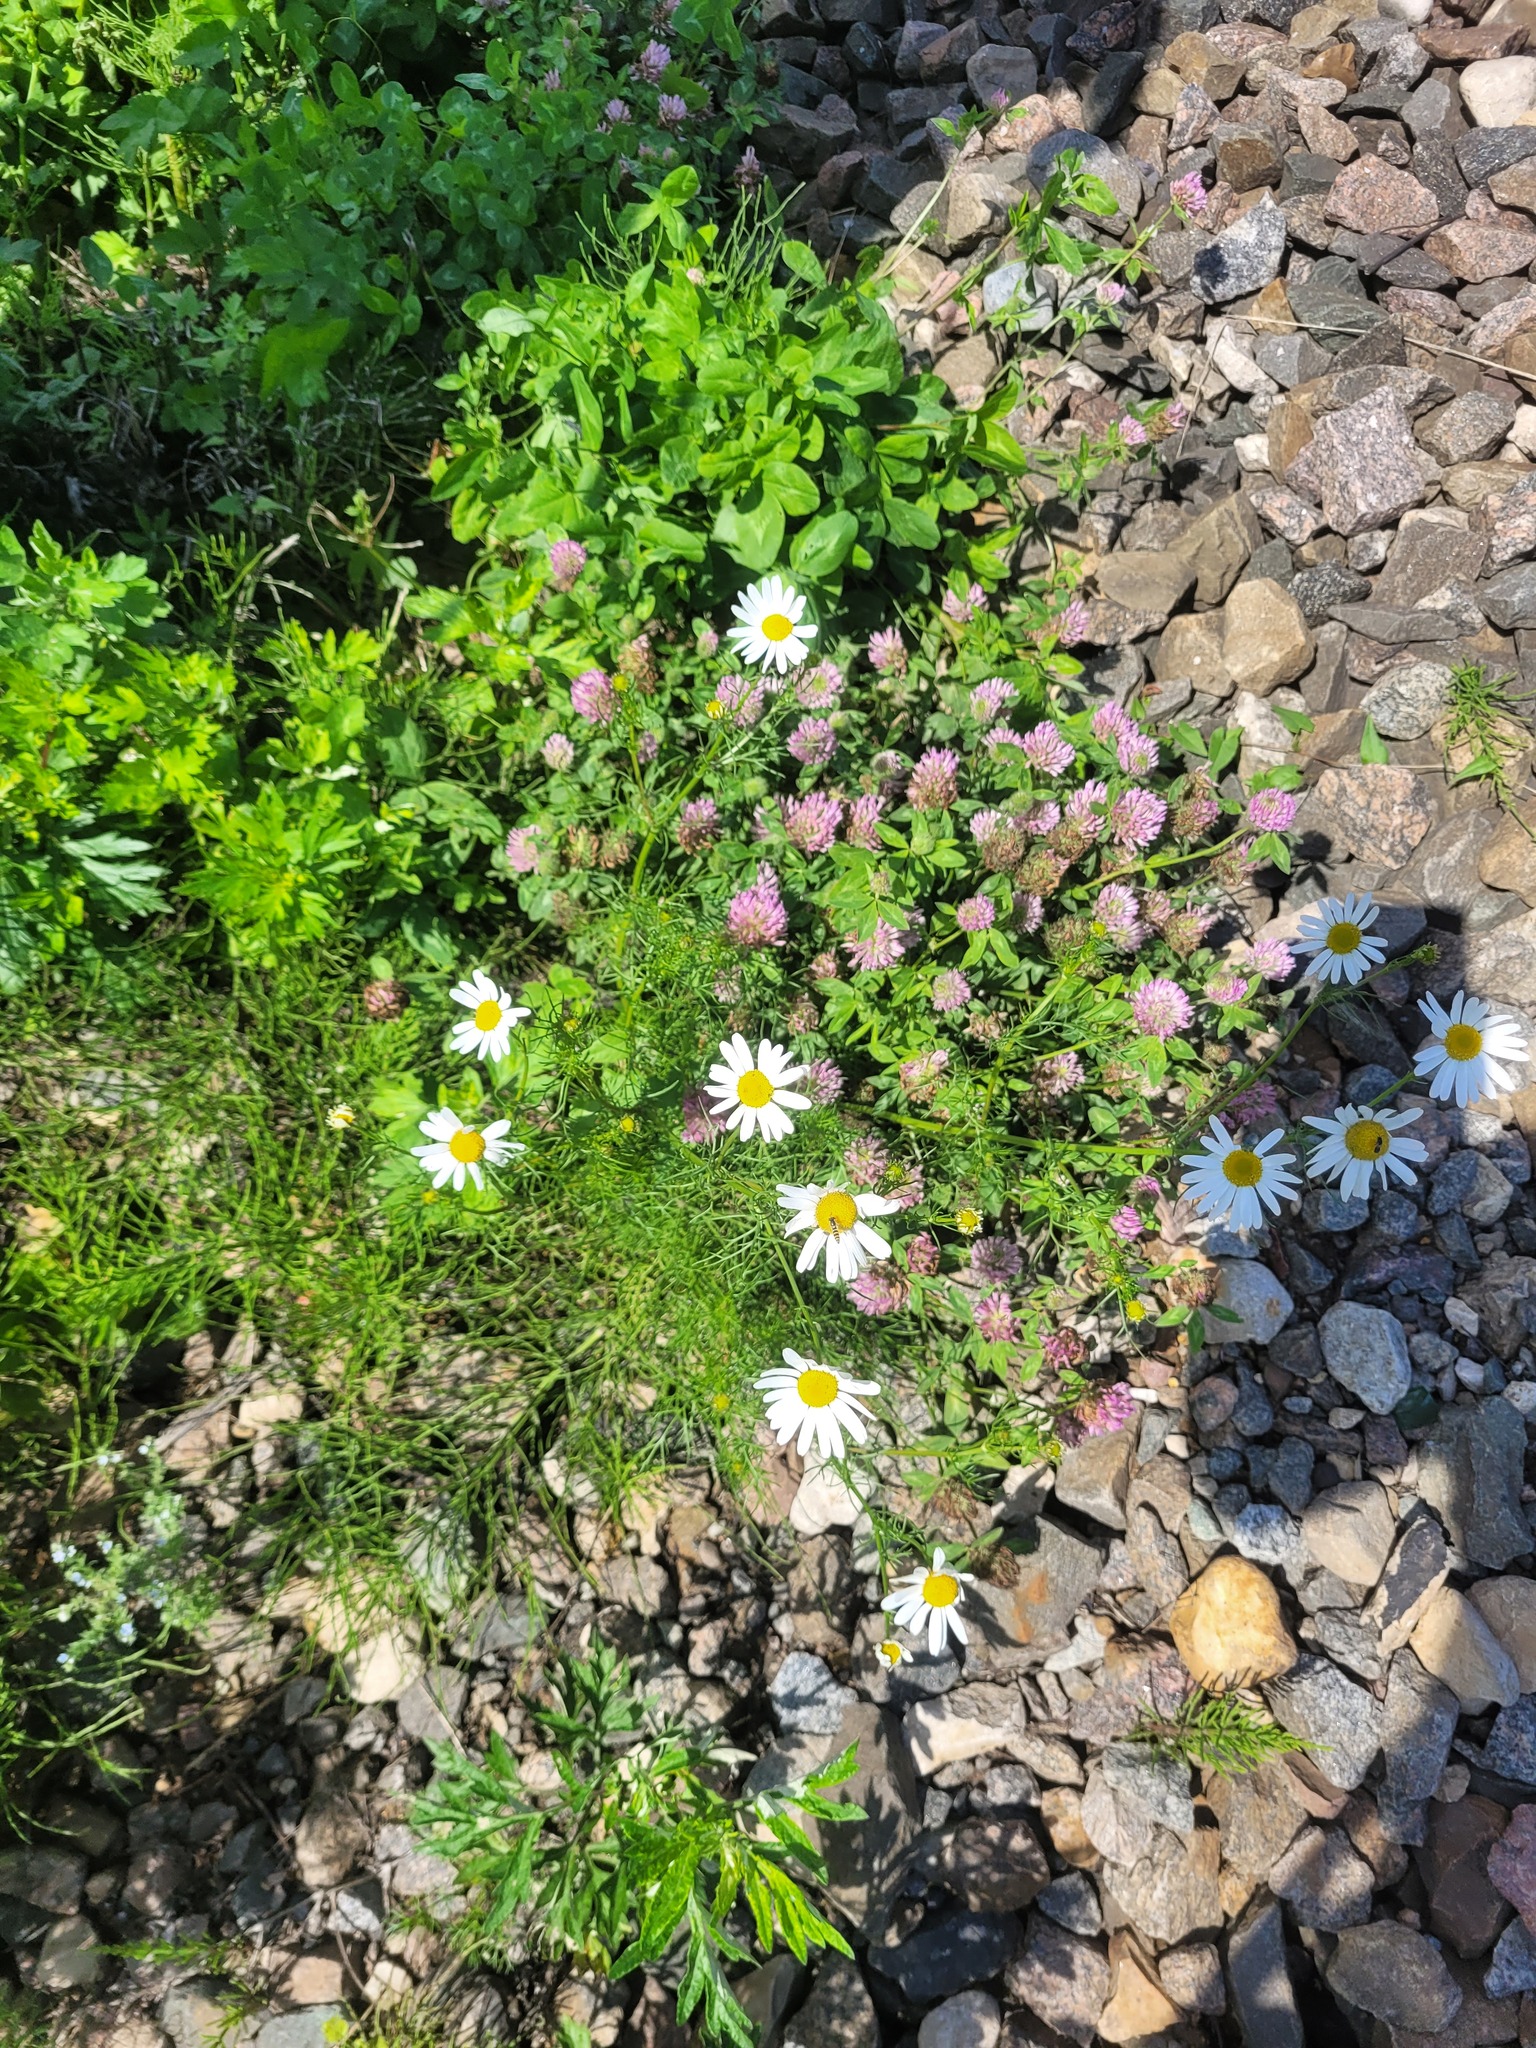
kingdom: Plantae
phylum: Tracheophyta
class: Magnoliopsida
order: Fabales
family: Fabaceae
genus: Trifolium
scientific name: Trifolium pratense
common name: Red clover
